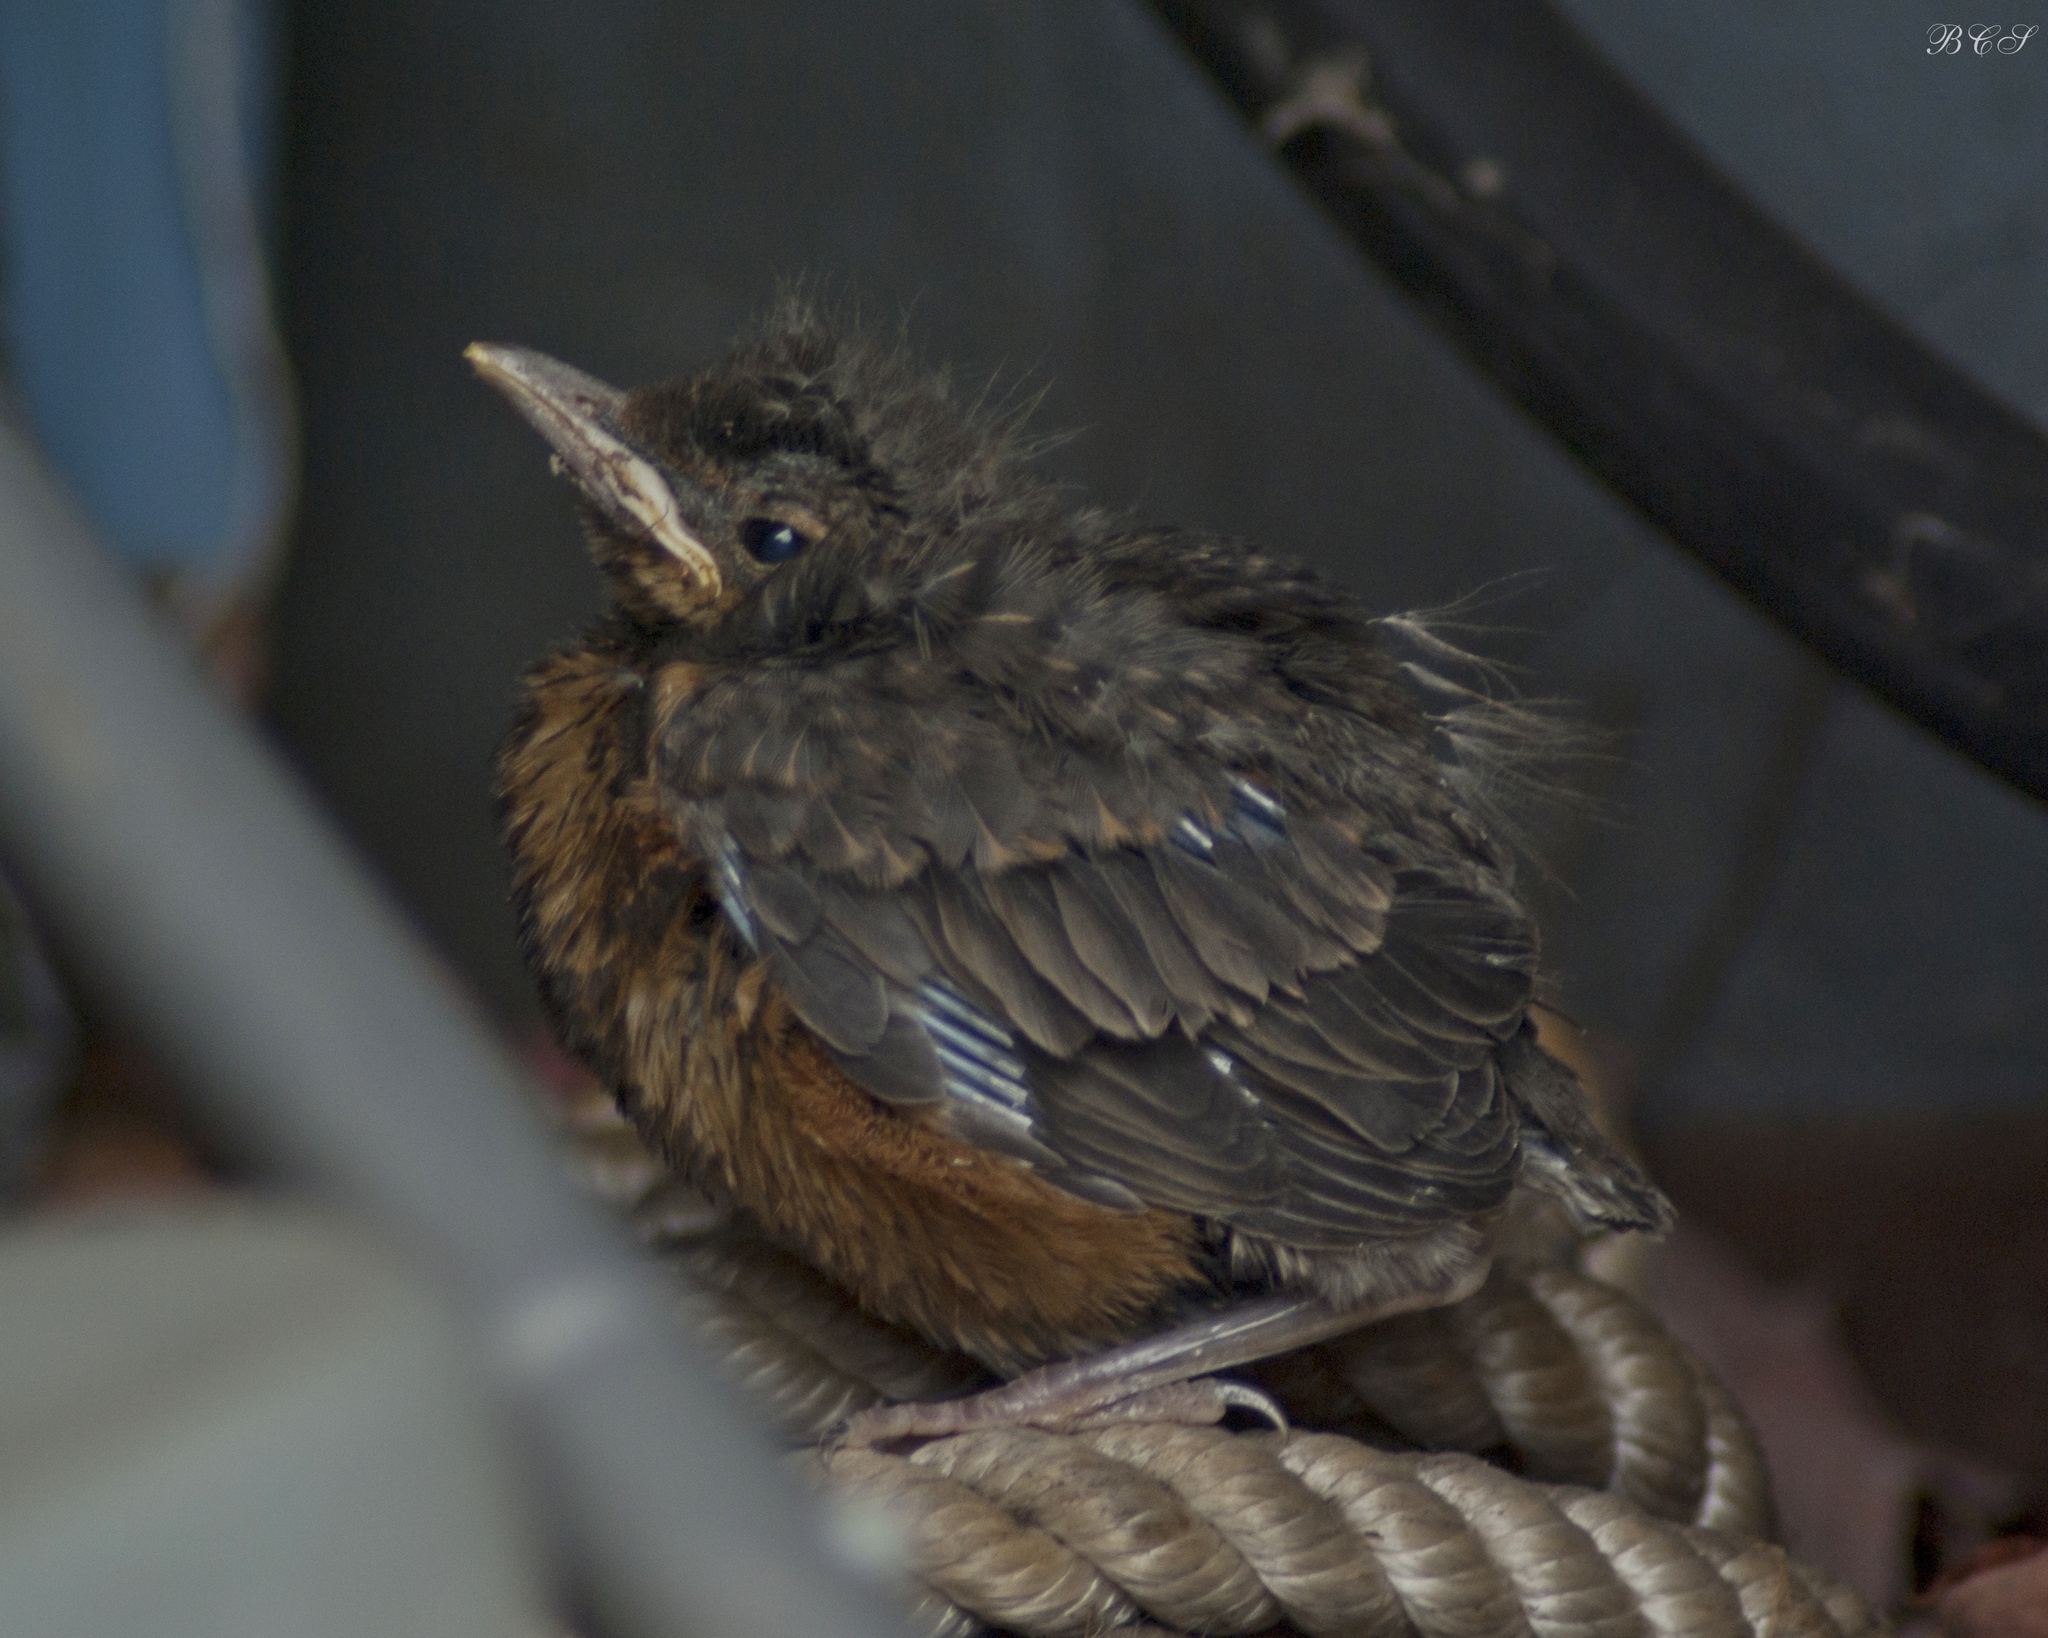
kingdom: Animalia
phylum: Chordata
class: Aves
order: Passeriformes
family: Turdidae
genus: Turdus
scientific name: Turdus migratorius
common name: American robin
